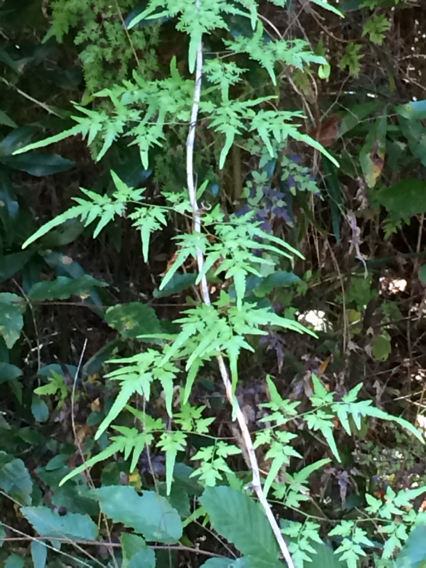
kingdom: Plantae
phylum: Tracheophyta
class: Polypodiopsida
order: Schizaeales
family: Lygodiaceae
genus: Lygodium
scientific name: Lygodium japonicum
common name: Japanese climbing fern
